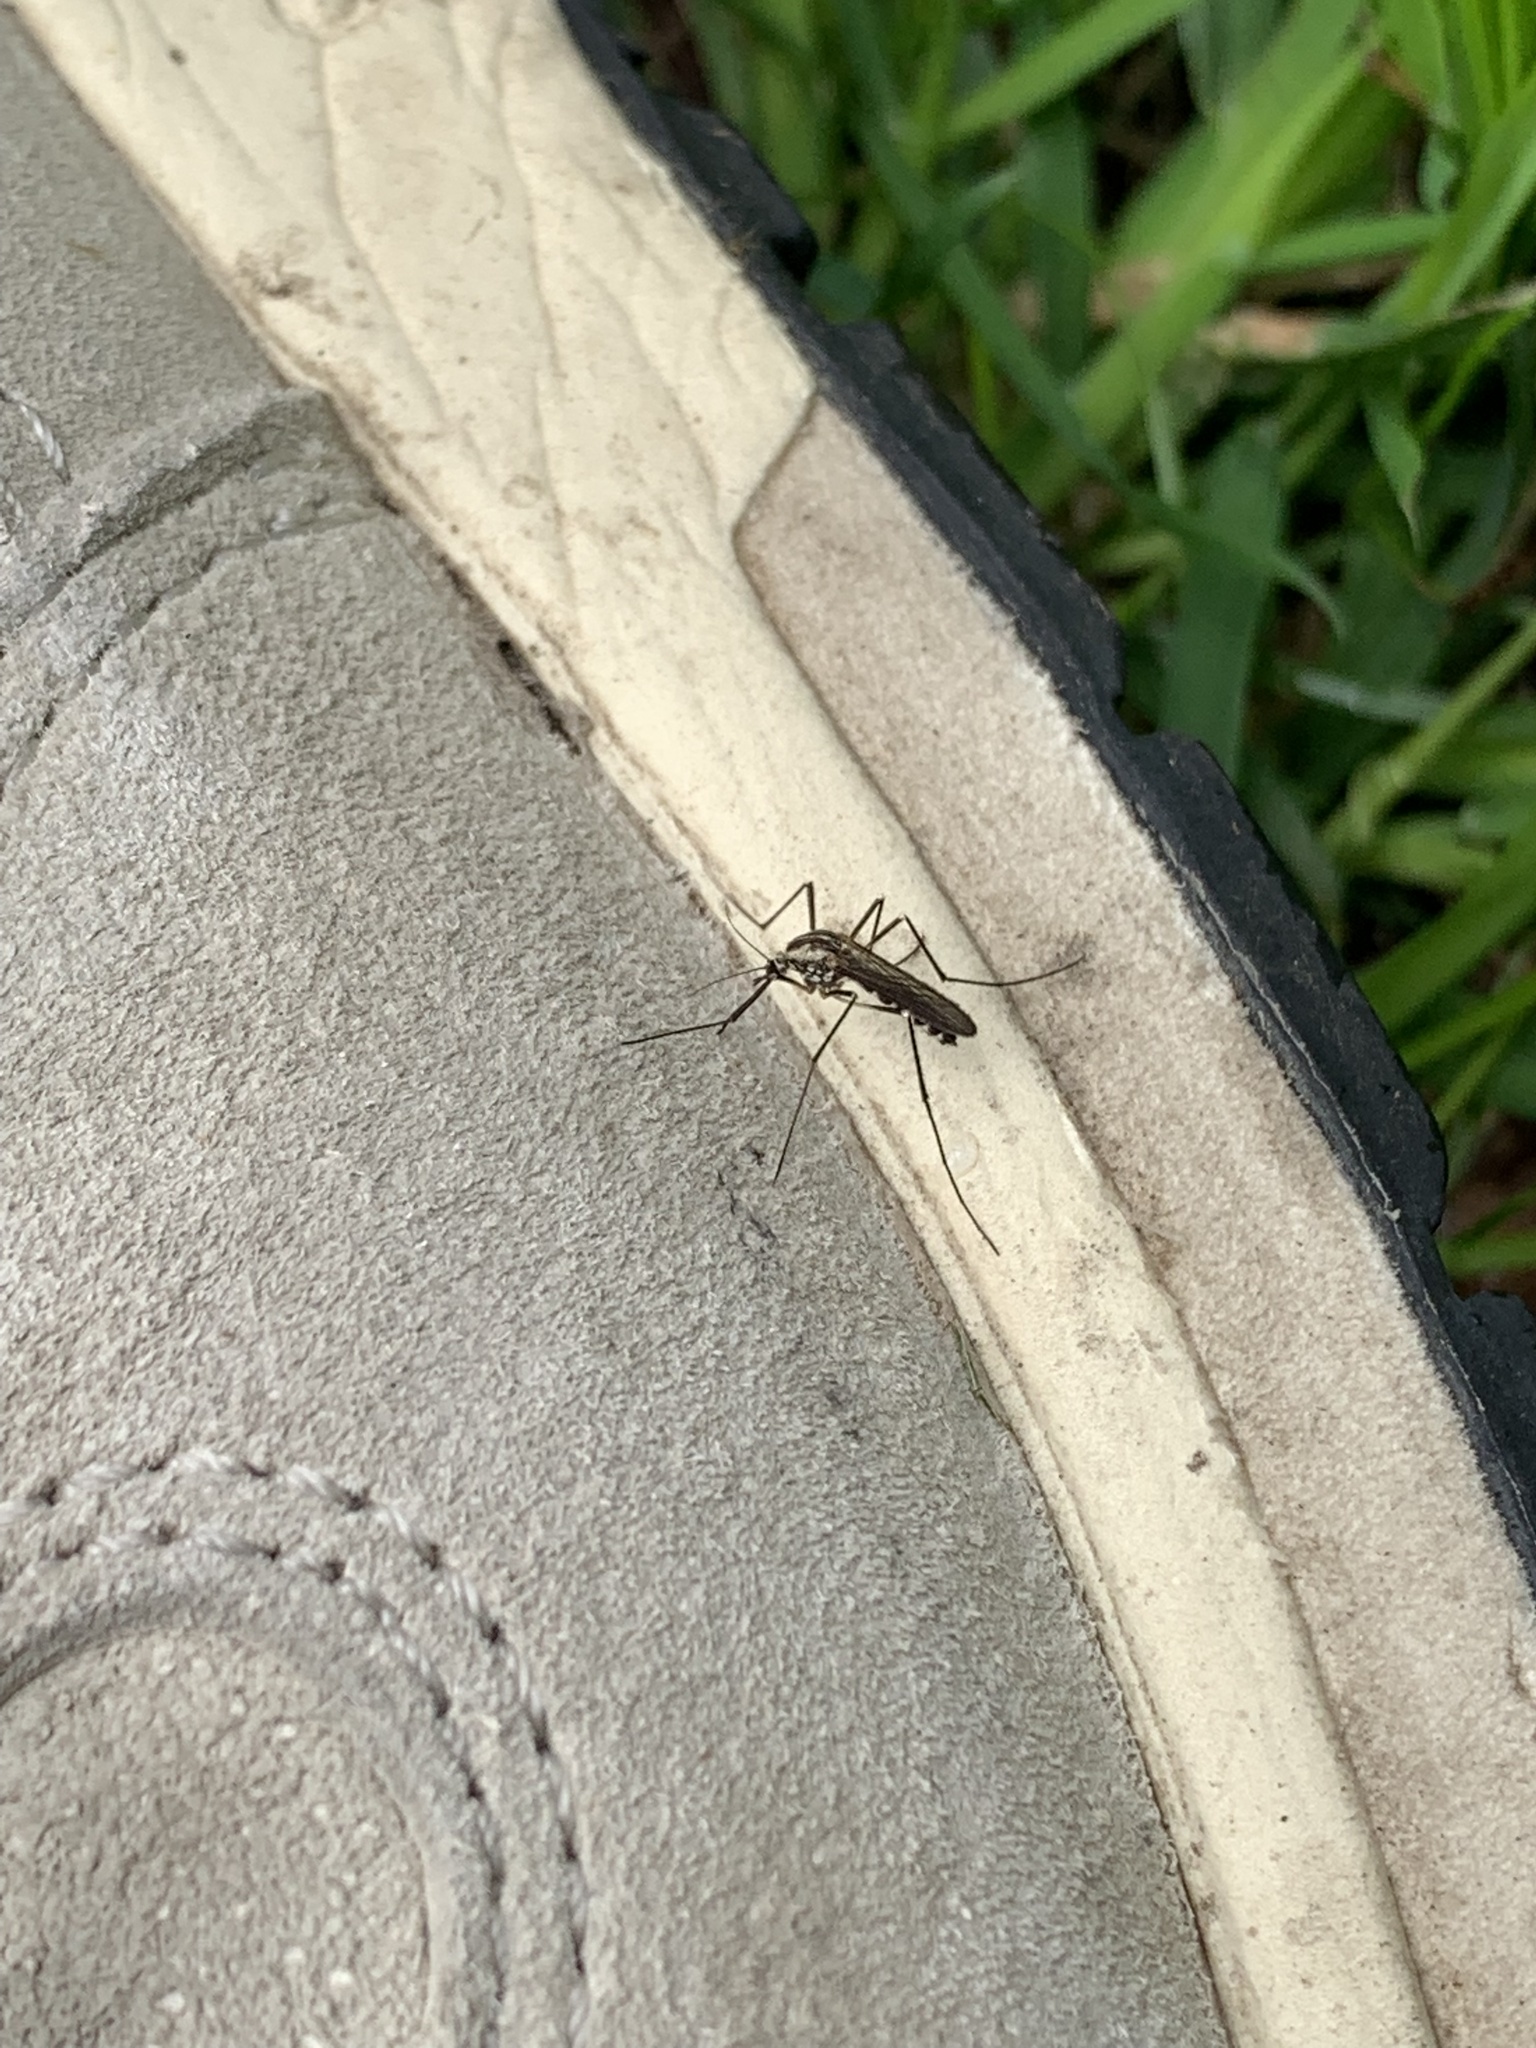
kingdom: Animalia
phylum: Arthropoda
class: Insecta
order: Diptera
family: Culicidae
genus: Aedes
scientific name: Aedes geniculatus
